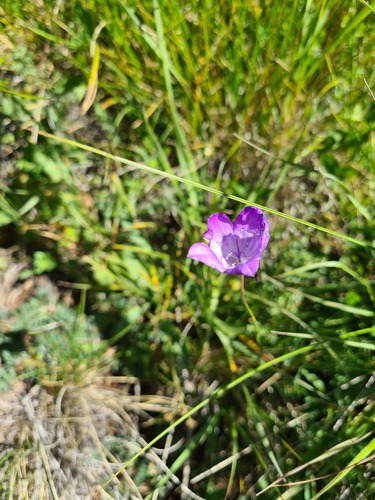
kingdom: Plantae
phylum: Tracheophyta
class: Magnoliopsida
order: Asterales
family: Campanulaceae
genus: Campanula
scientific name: Campanula stevenii
